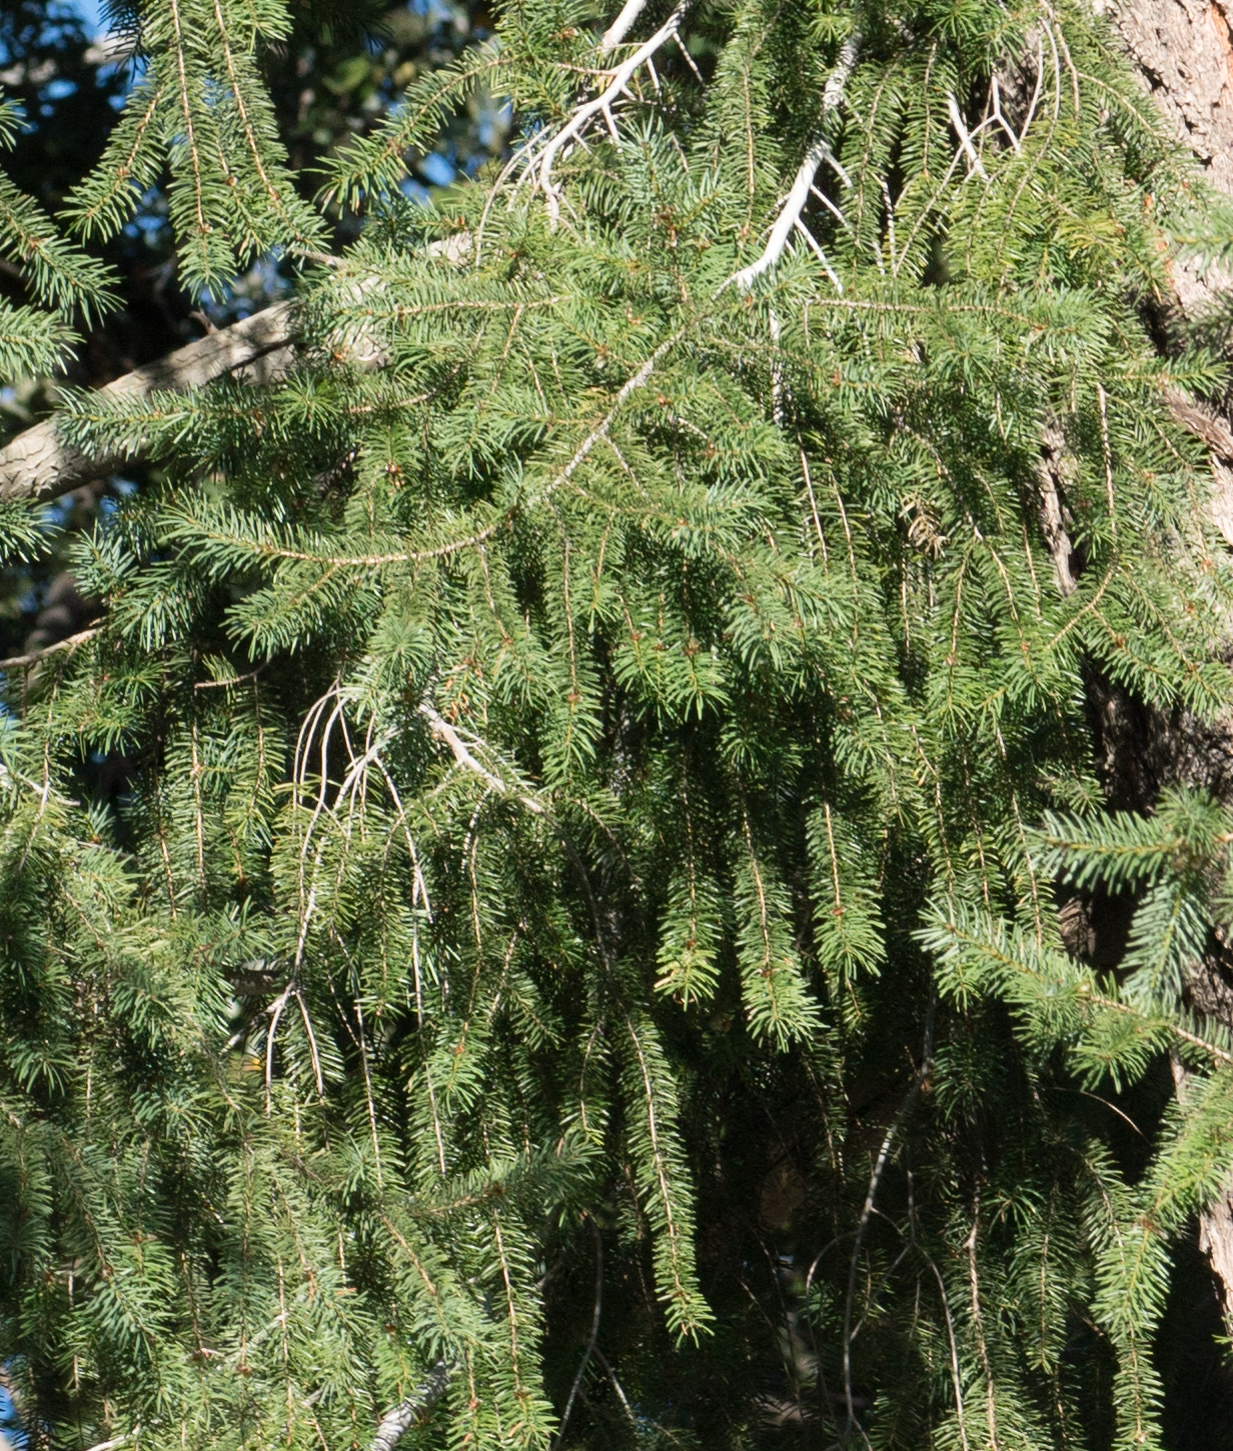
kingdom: Plantae
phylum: Tracheophyta
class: Pinopsida
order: Pinales
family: Pinaceae
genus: Pseudotsuga
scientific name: Pseudotsuga macrocarpa
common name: Big-cone douglas-fir
